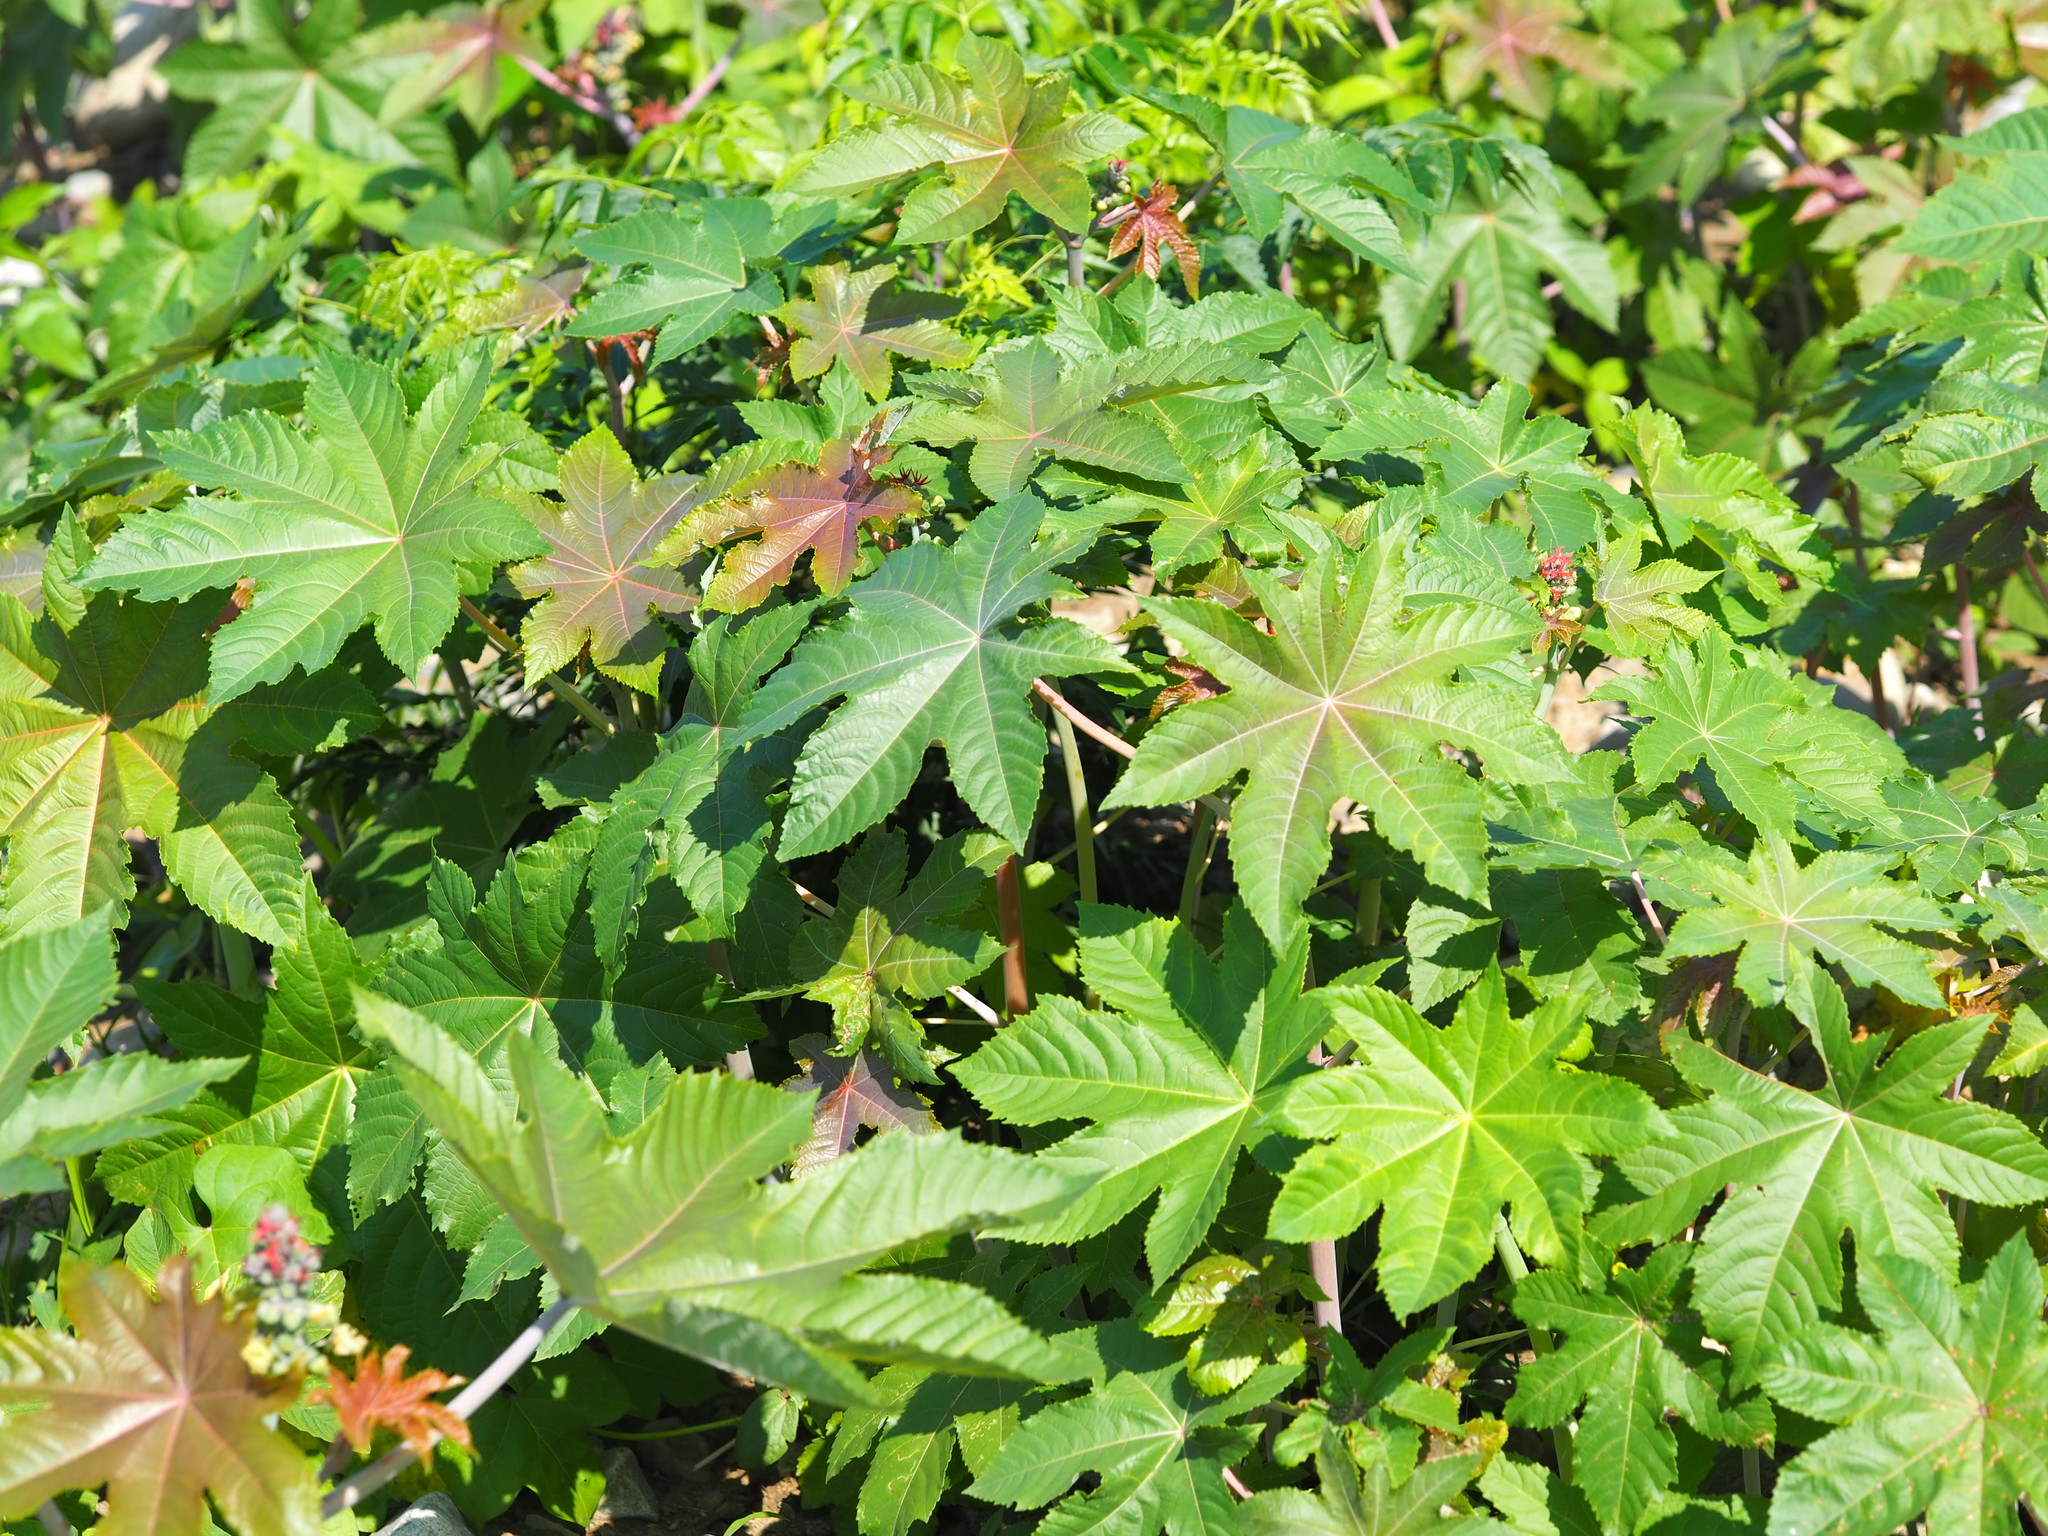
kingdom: Plantae
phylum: Tracheophyta
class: Magnoliopsida
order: Malpighiales
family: Euphorbiaceae
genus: Ricinus
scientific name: Ricinus communis
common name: Castor-oil-plant
